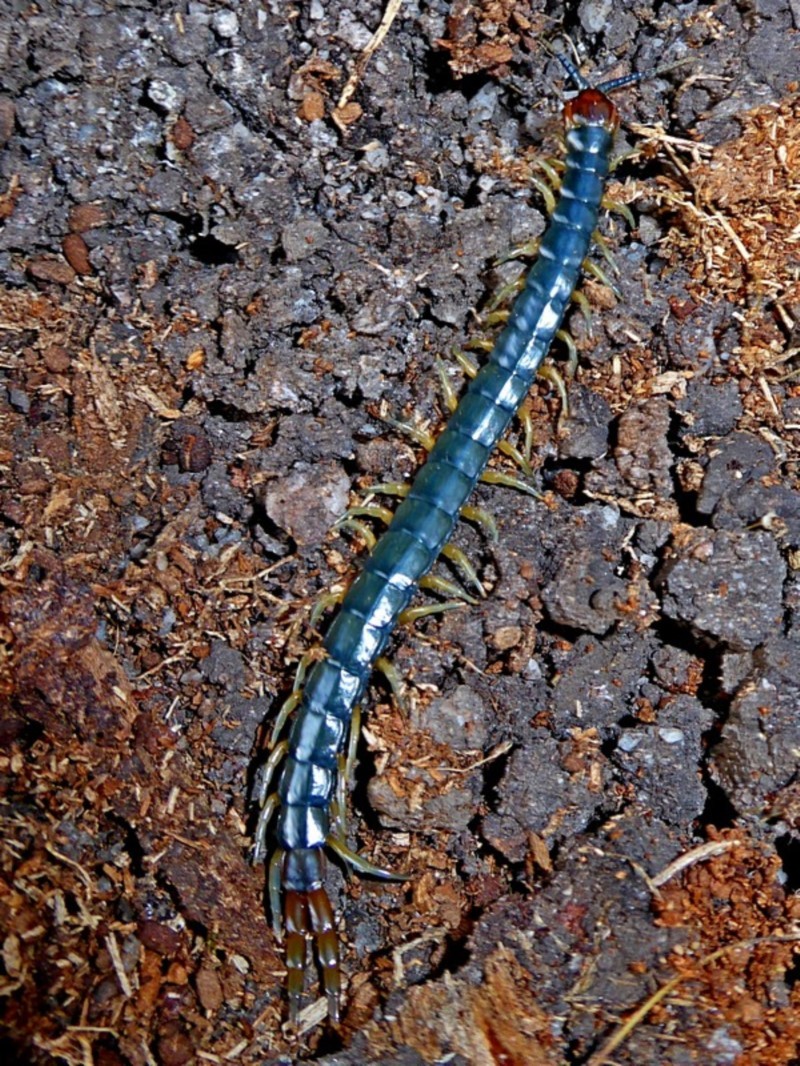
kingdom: Animalia
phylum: Arthropoda
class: Chilopoda
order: Scolopendromorpha
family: Scolopendridae
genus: Cormocephalus
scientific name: Cormocephalus westwoodi
